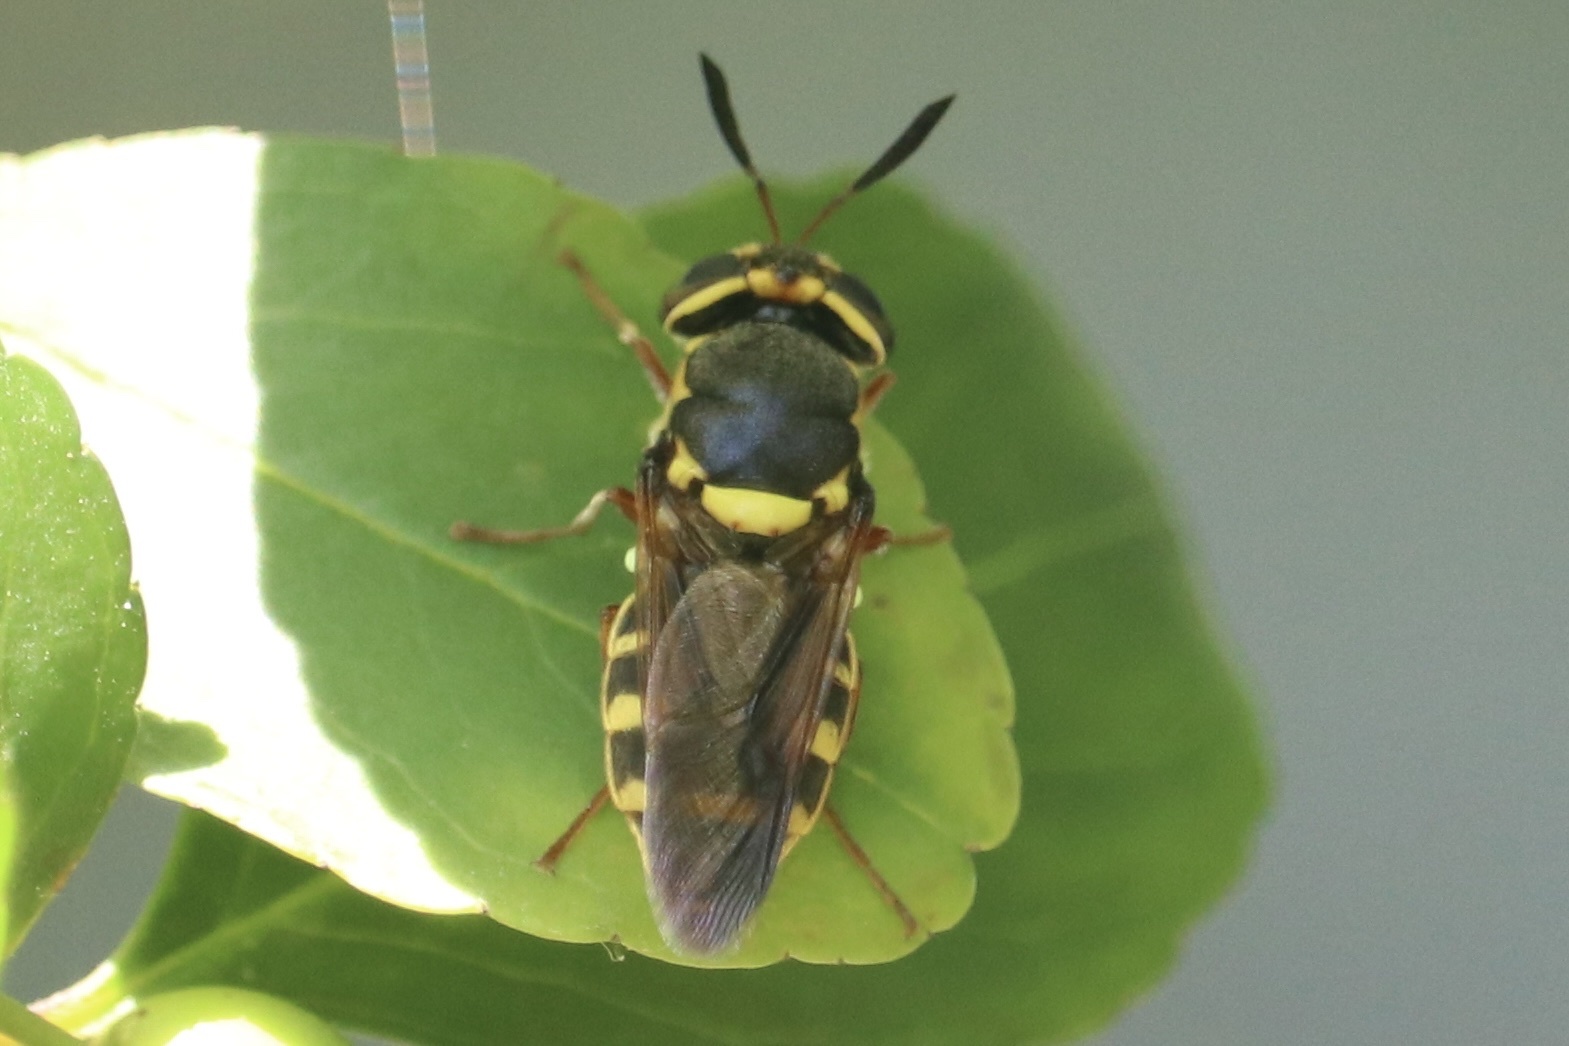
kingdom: Animalia
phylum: Arthropoda
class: Insecta
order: Diptera
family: Stratiomyidae
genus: Hoplitimyia
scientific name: Hoplitimyia constans
